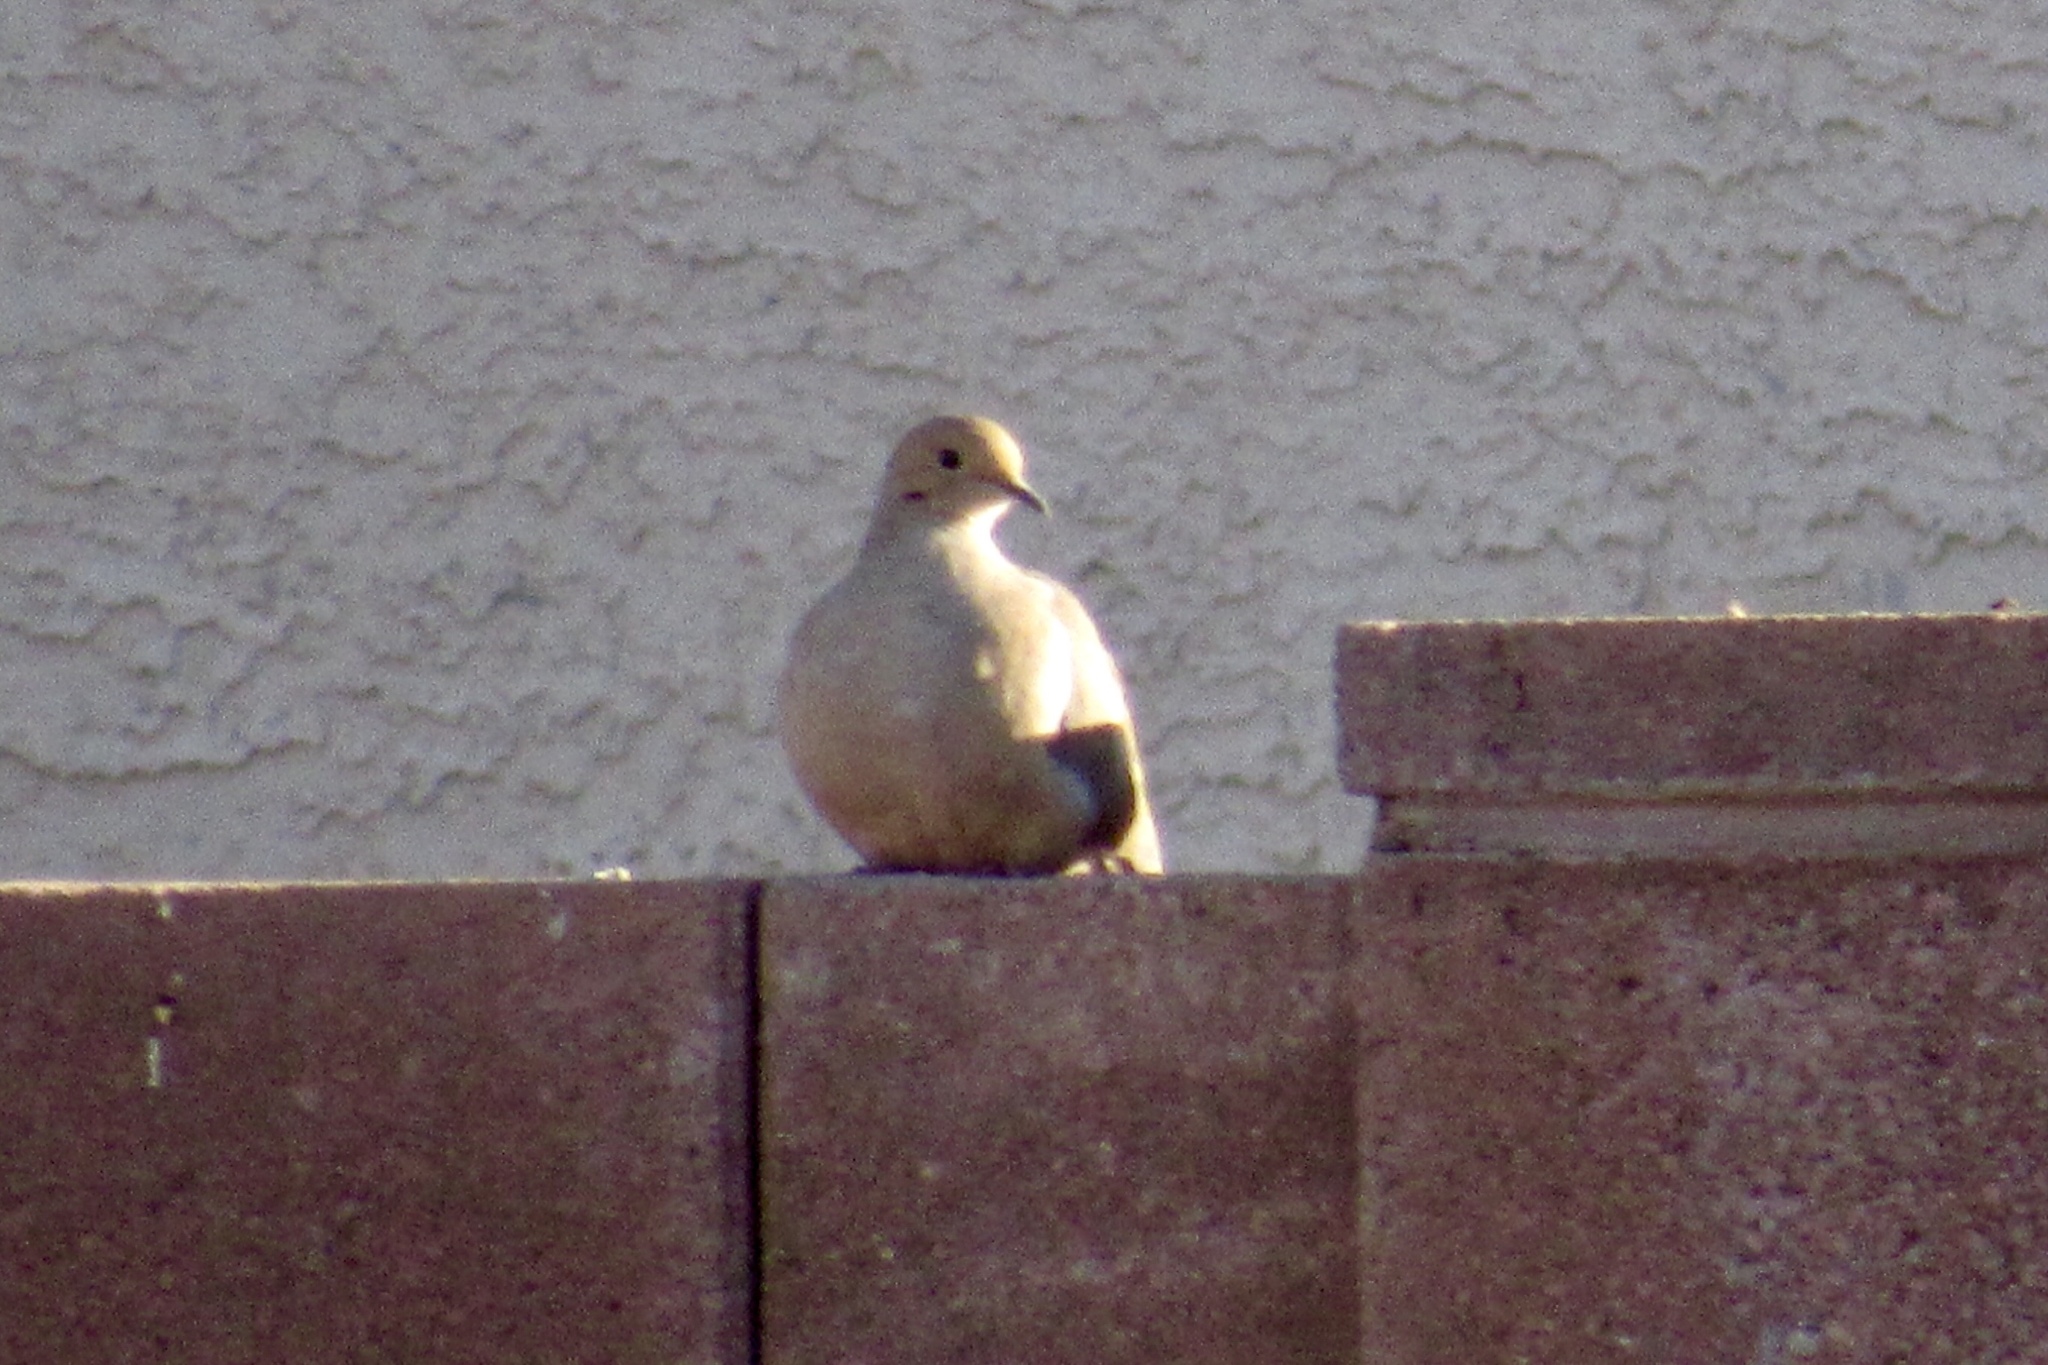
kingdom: Animalia
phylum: Chordata
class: Aves
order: Columbiformes
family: Columbidae
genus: Zenaida
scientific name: Zenaida macroura
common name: Mourning dove
